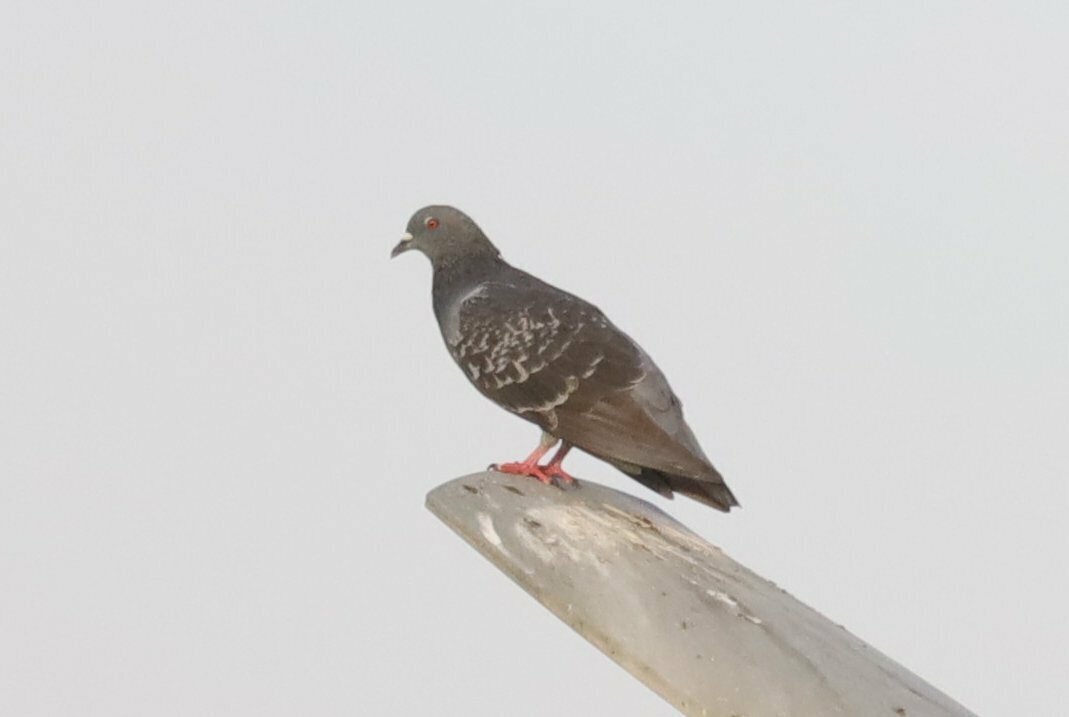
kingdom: Animalia
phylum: Chordata
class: Aves
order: Columbiformes
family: Columbidae
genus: Columba
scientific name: Columba livia
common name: Rock pigeon
